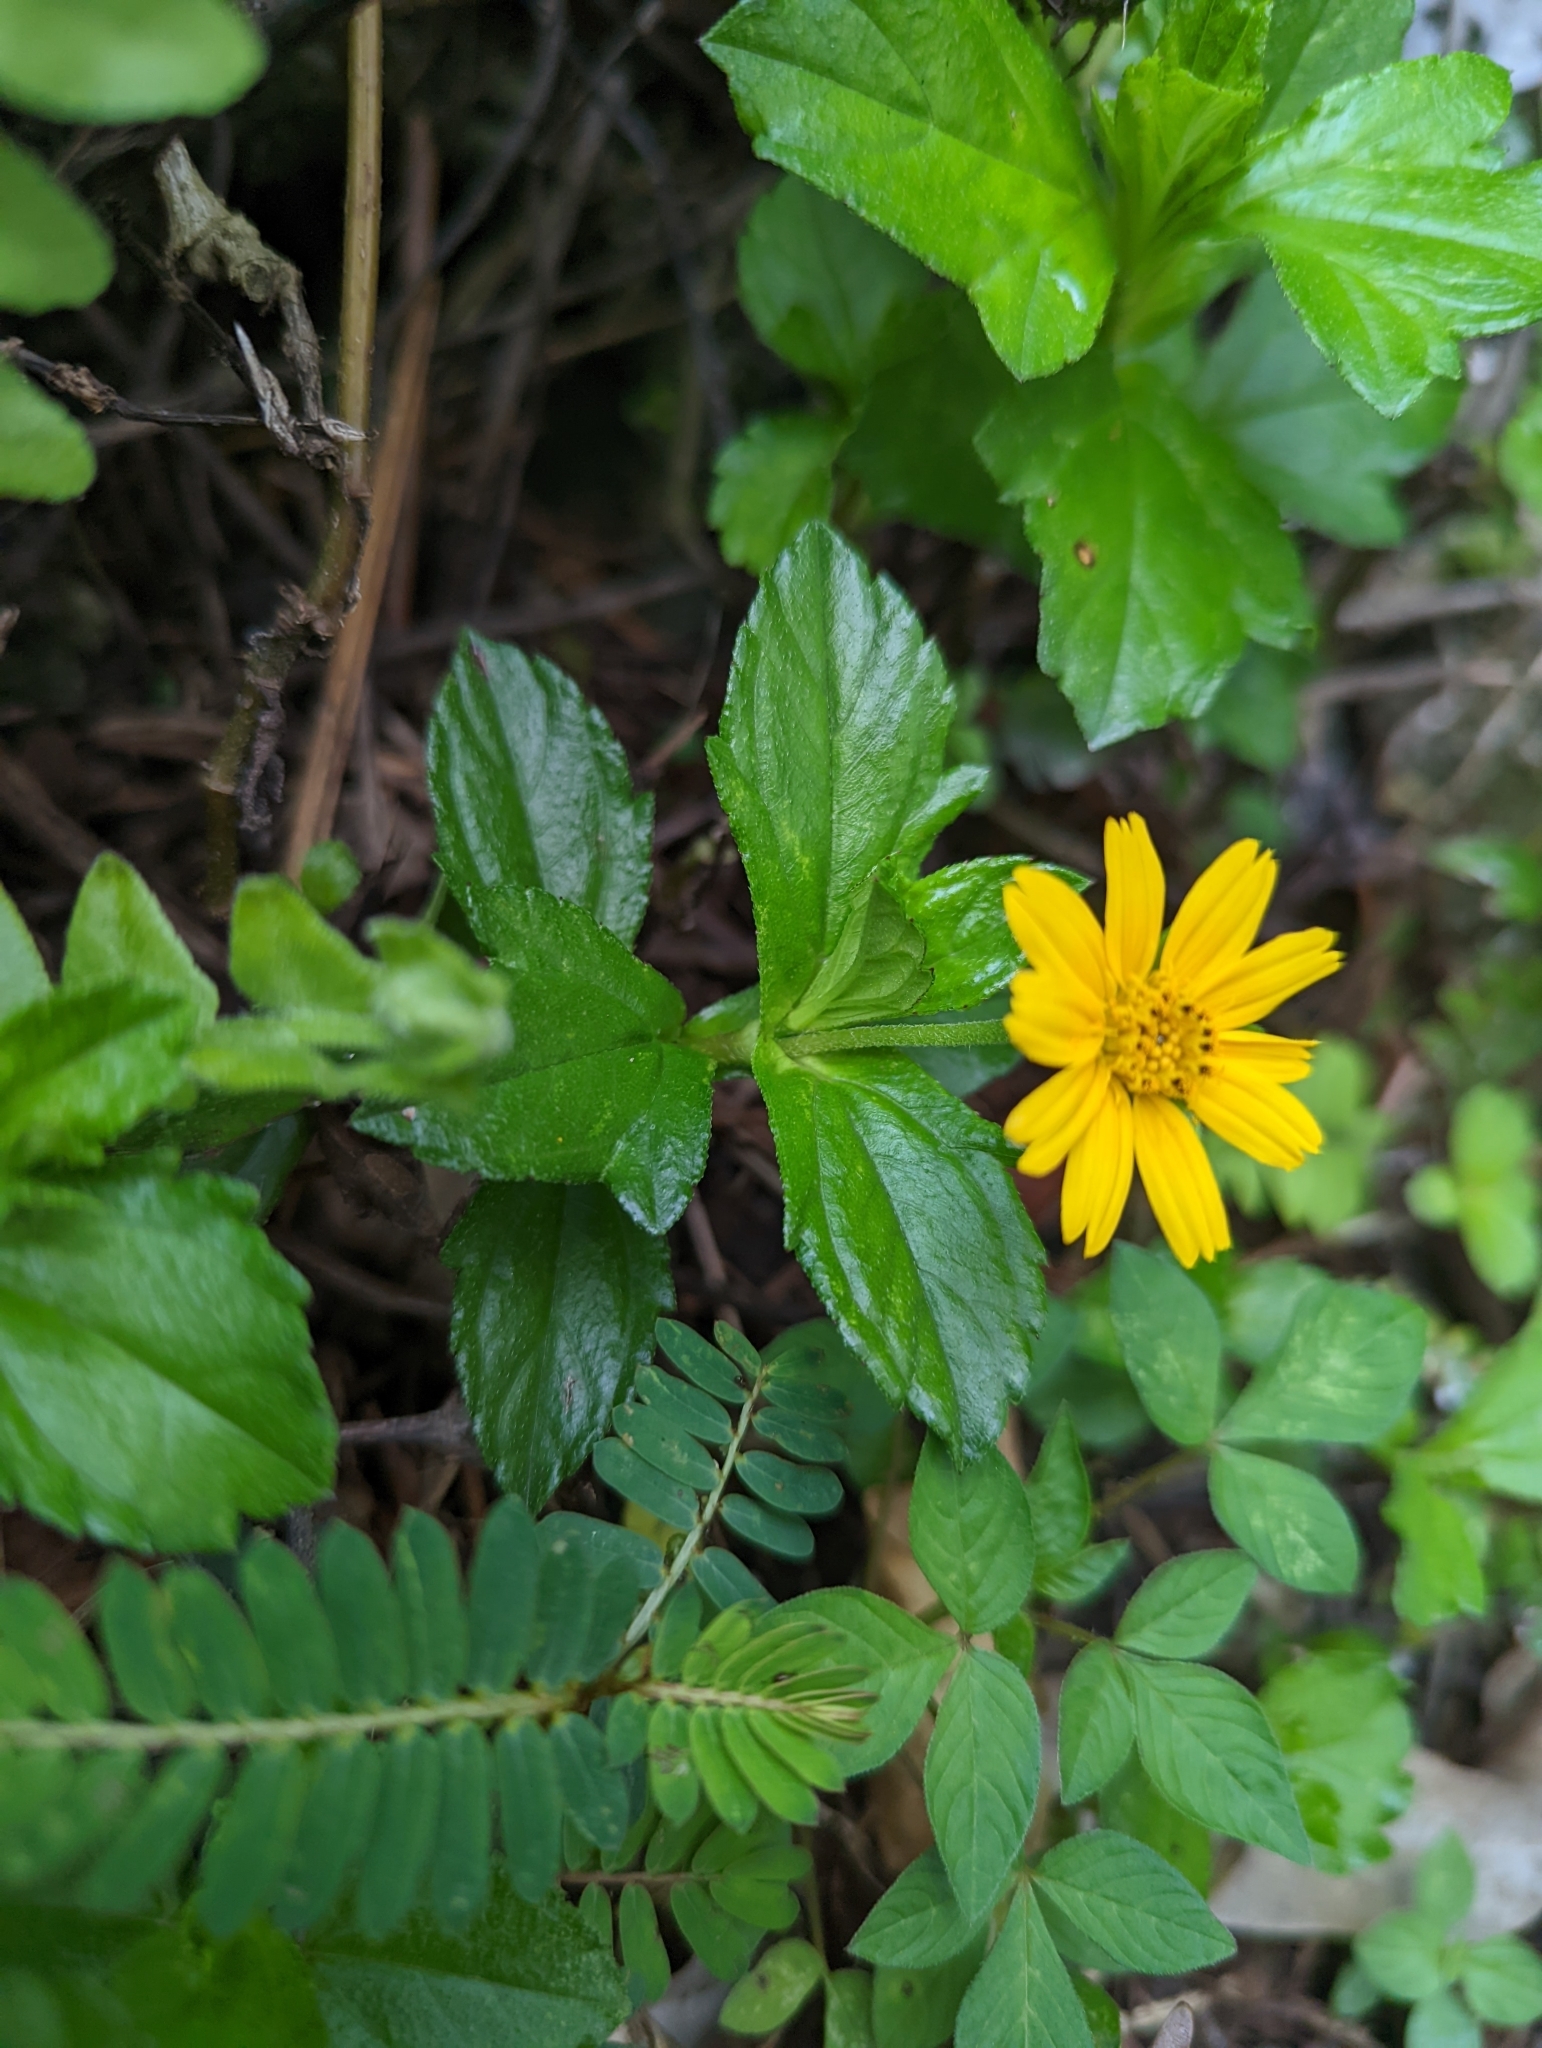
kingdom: Plantae
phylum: Tracheophyta
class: Magnoliopsida
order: Asterales
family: Asteraceae
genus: Sphagneticola
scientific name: Sphagneticola trilobata
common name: Bay biscayne creeping-oxeye
